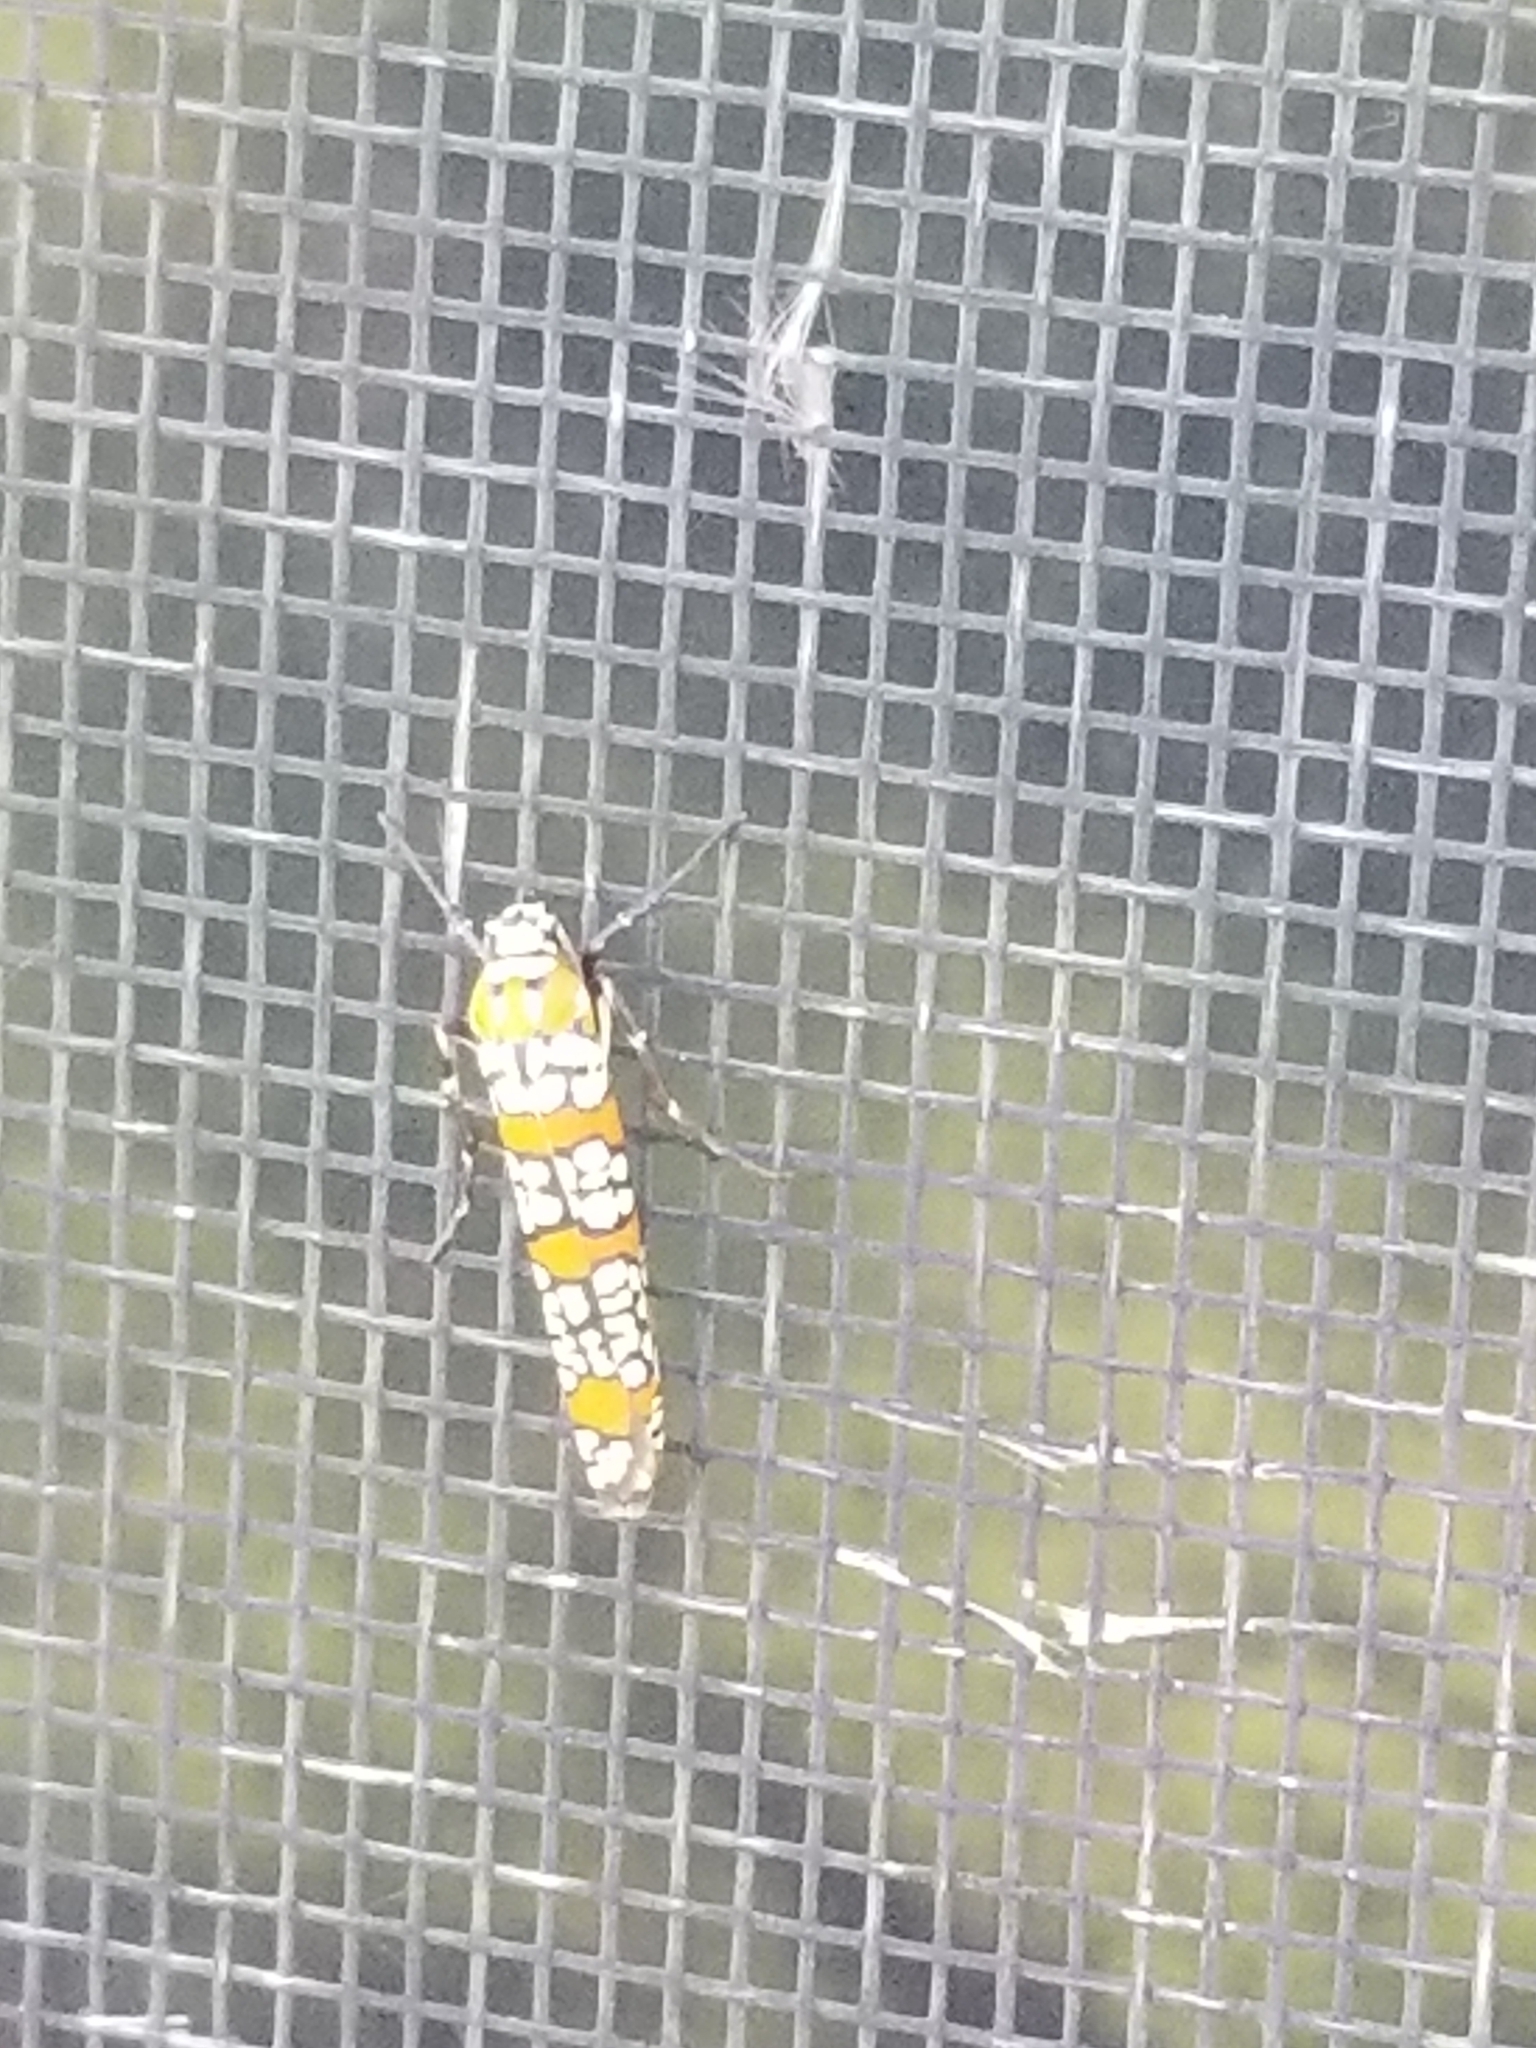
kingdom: Animalia
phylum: Arthropoda
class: Insecta
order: Lepidoptera
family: Attevidae
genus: Atteva
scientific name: Atteva punctella
